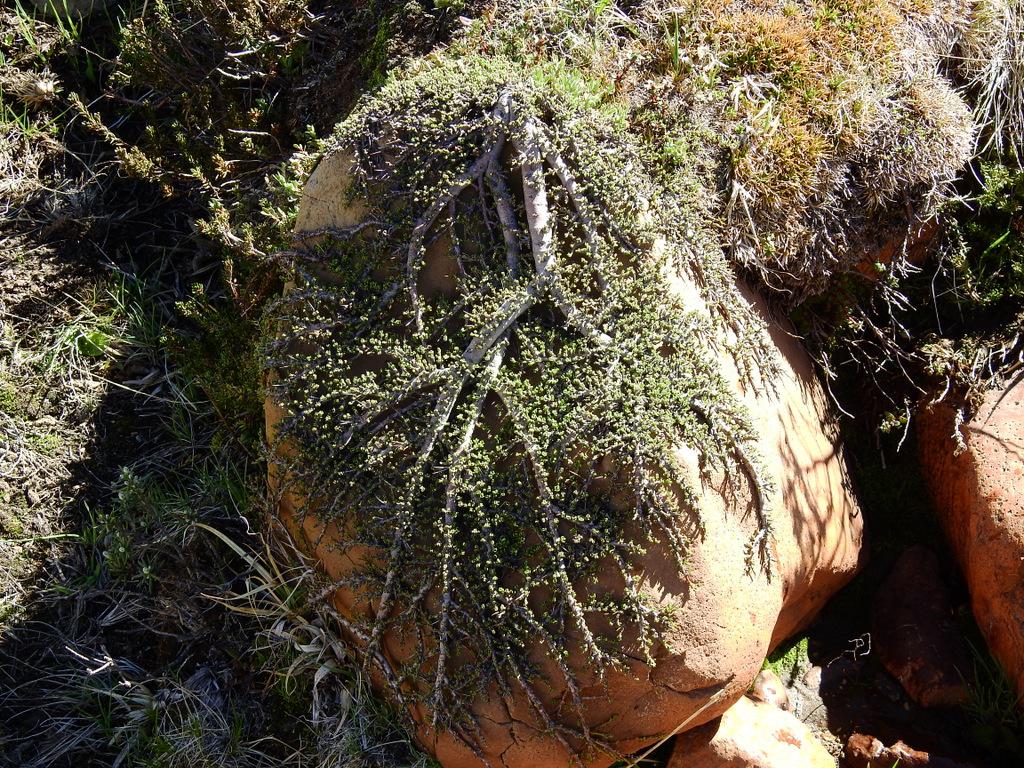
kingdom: Plantae
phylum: Tracheophyta
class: Magnoliopsida
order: Rosales
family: Rhamnaceae
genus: Discaria
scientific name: Discaria nana
